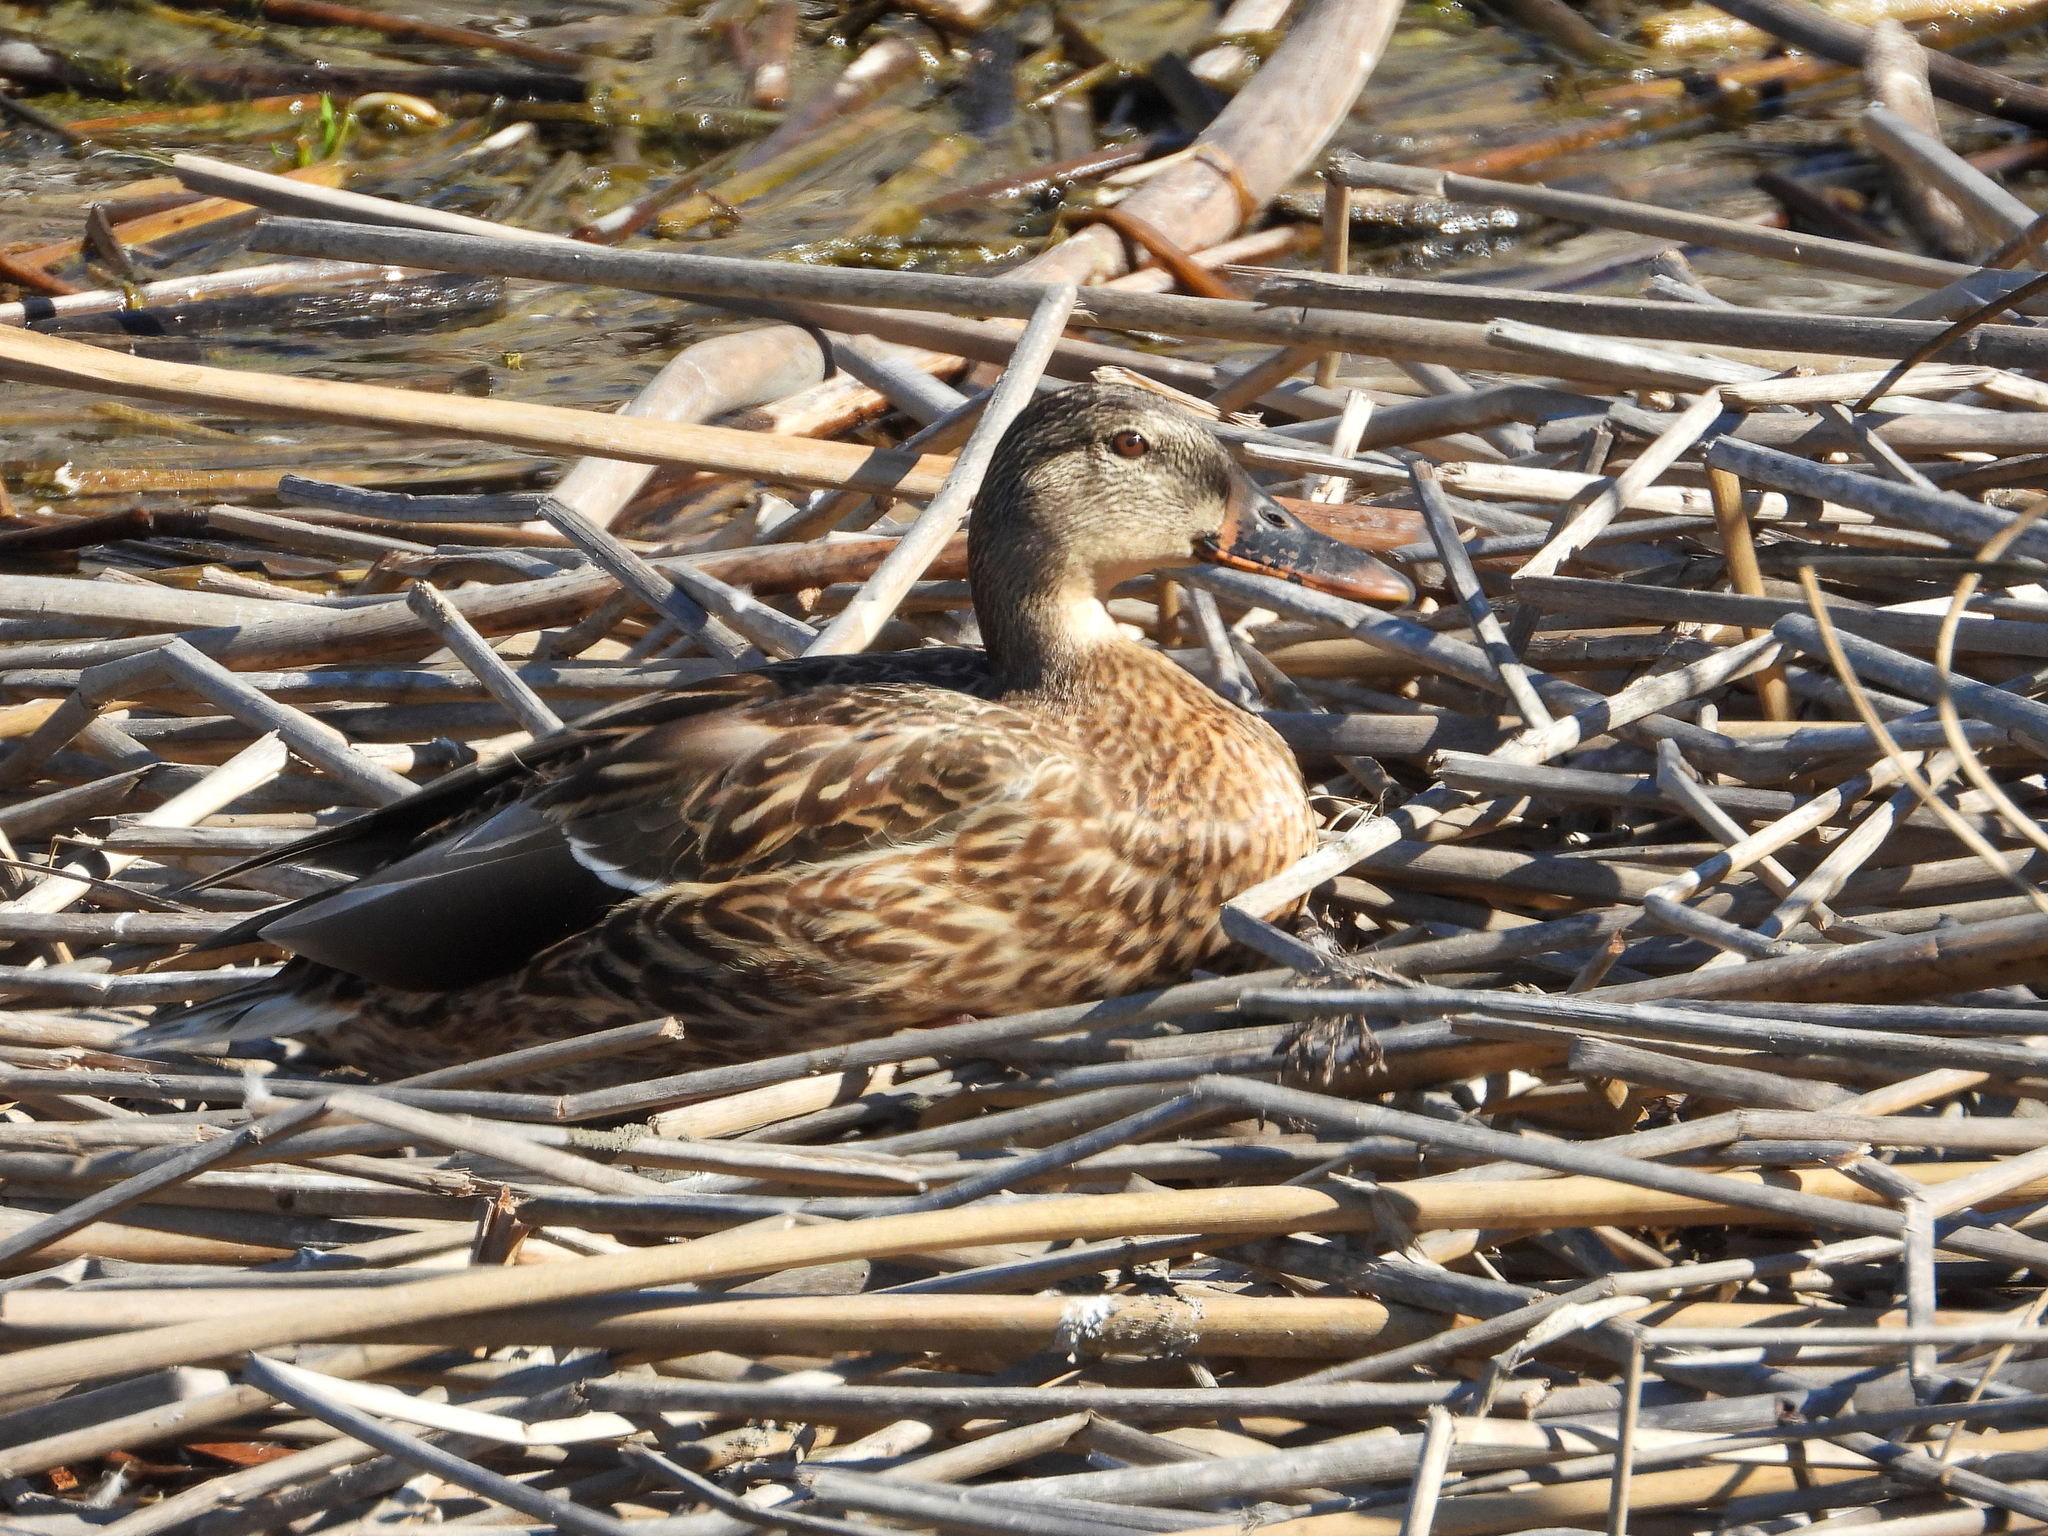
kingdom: Animalia
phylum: Chordata
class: Aves
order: Anseriformes
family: Anatidae
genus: Anas
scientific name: Anas platyrhynchos
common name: Mallard
